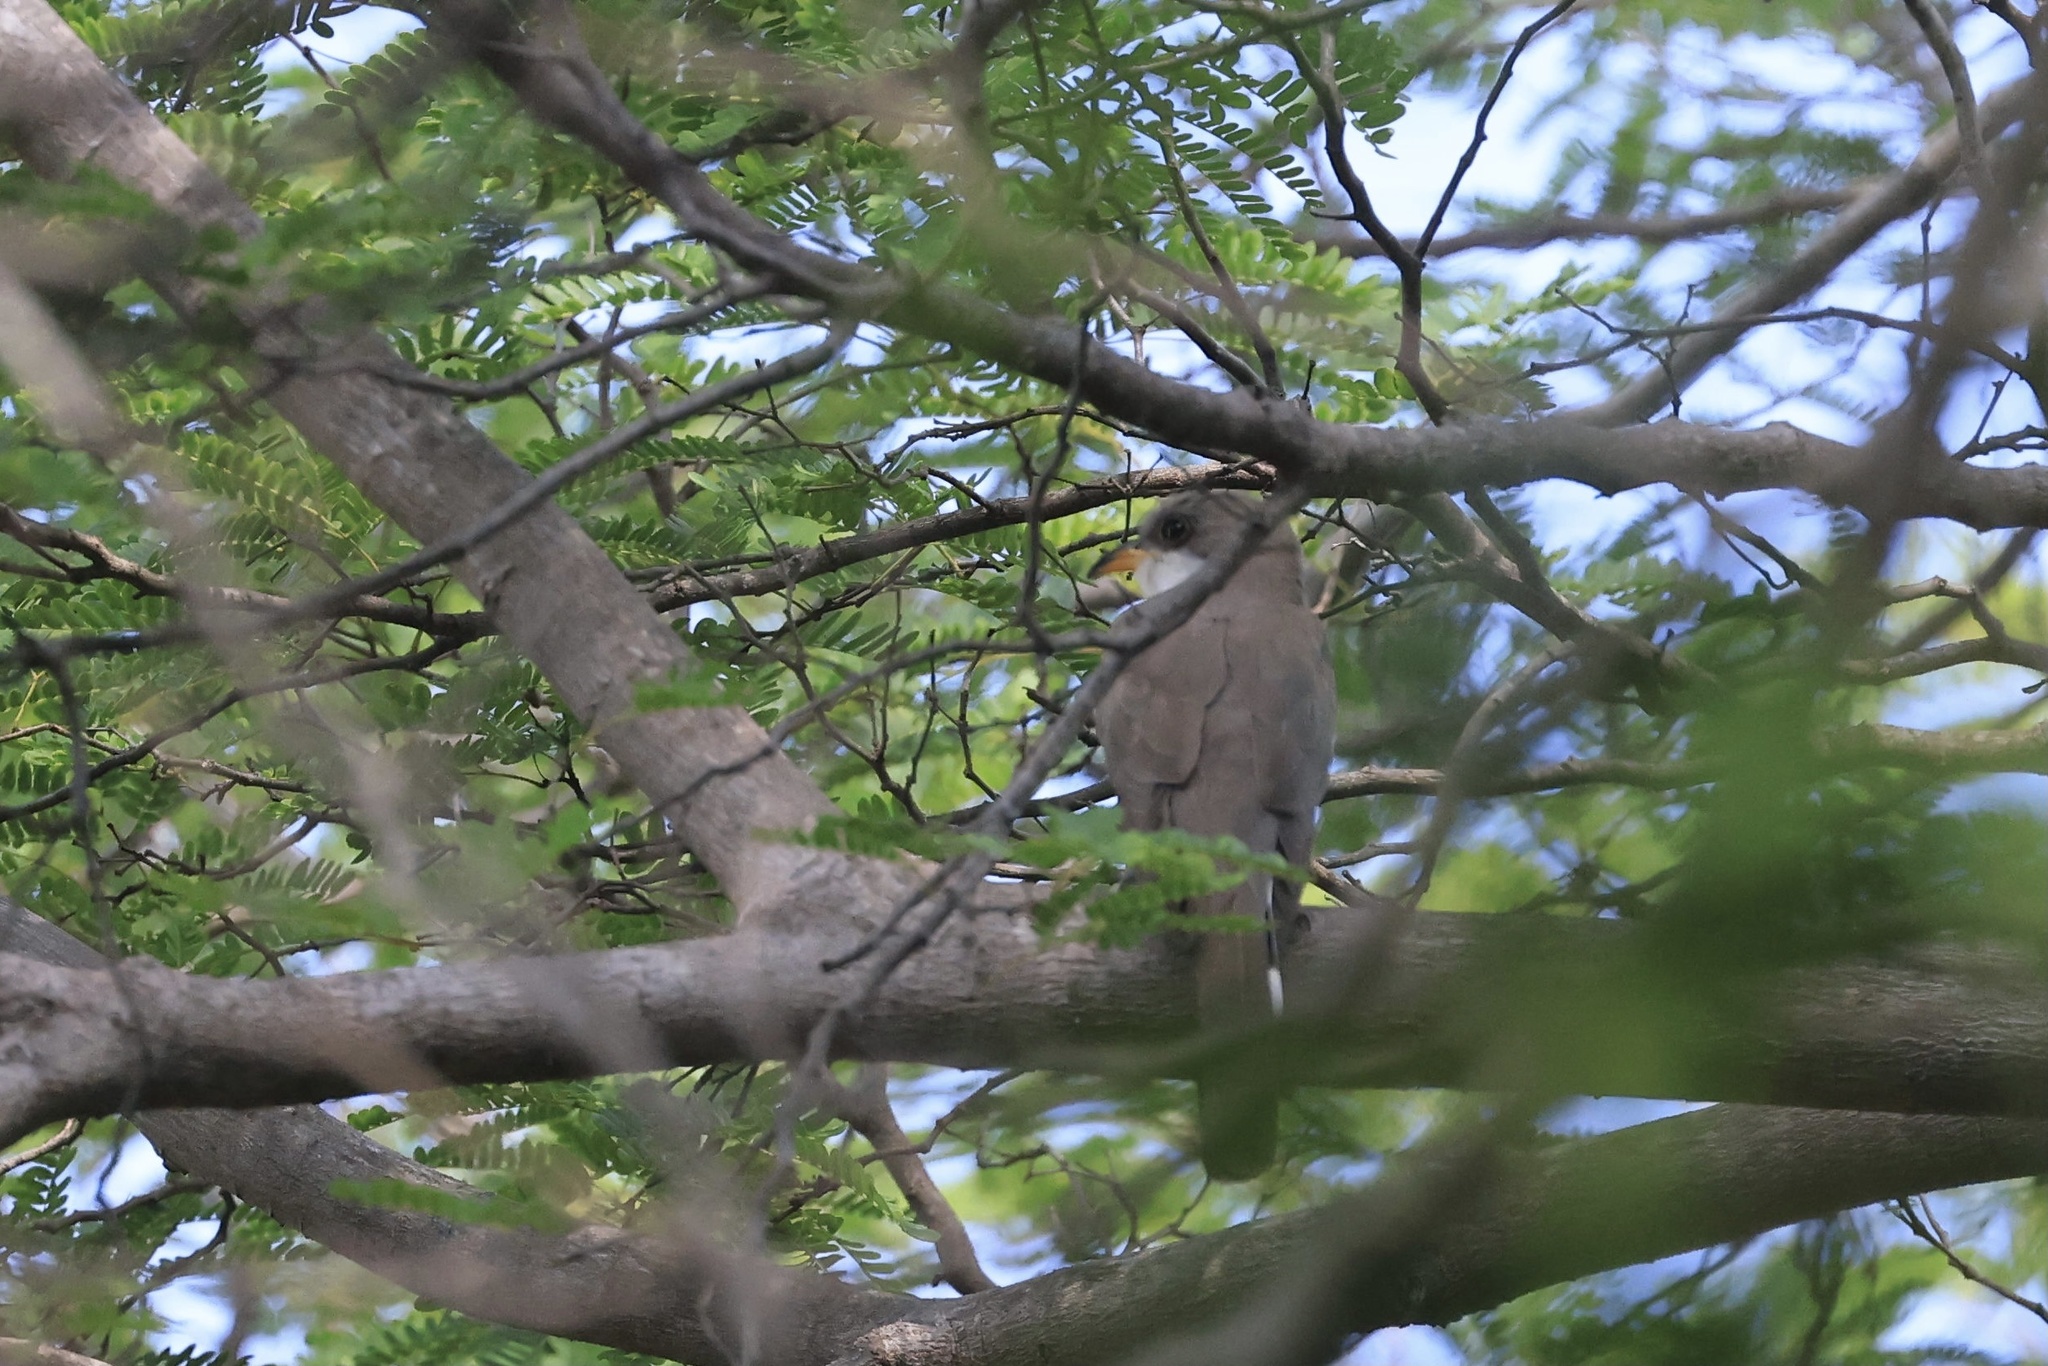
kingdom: Animalia
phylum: Chordata
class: Aves
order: Cuculiformes
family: Cuculidae
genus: Coccyzus
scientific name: Coccyzus americanus
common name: Yellow-billed cuckoo
